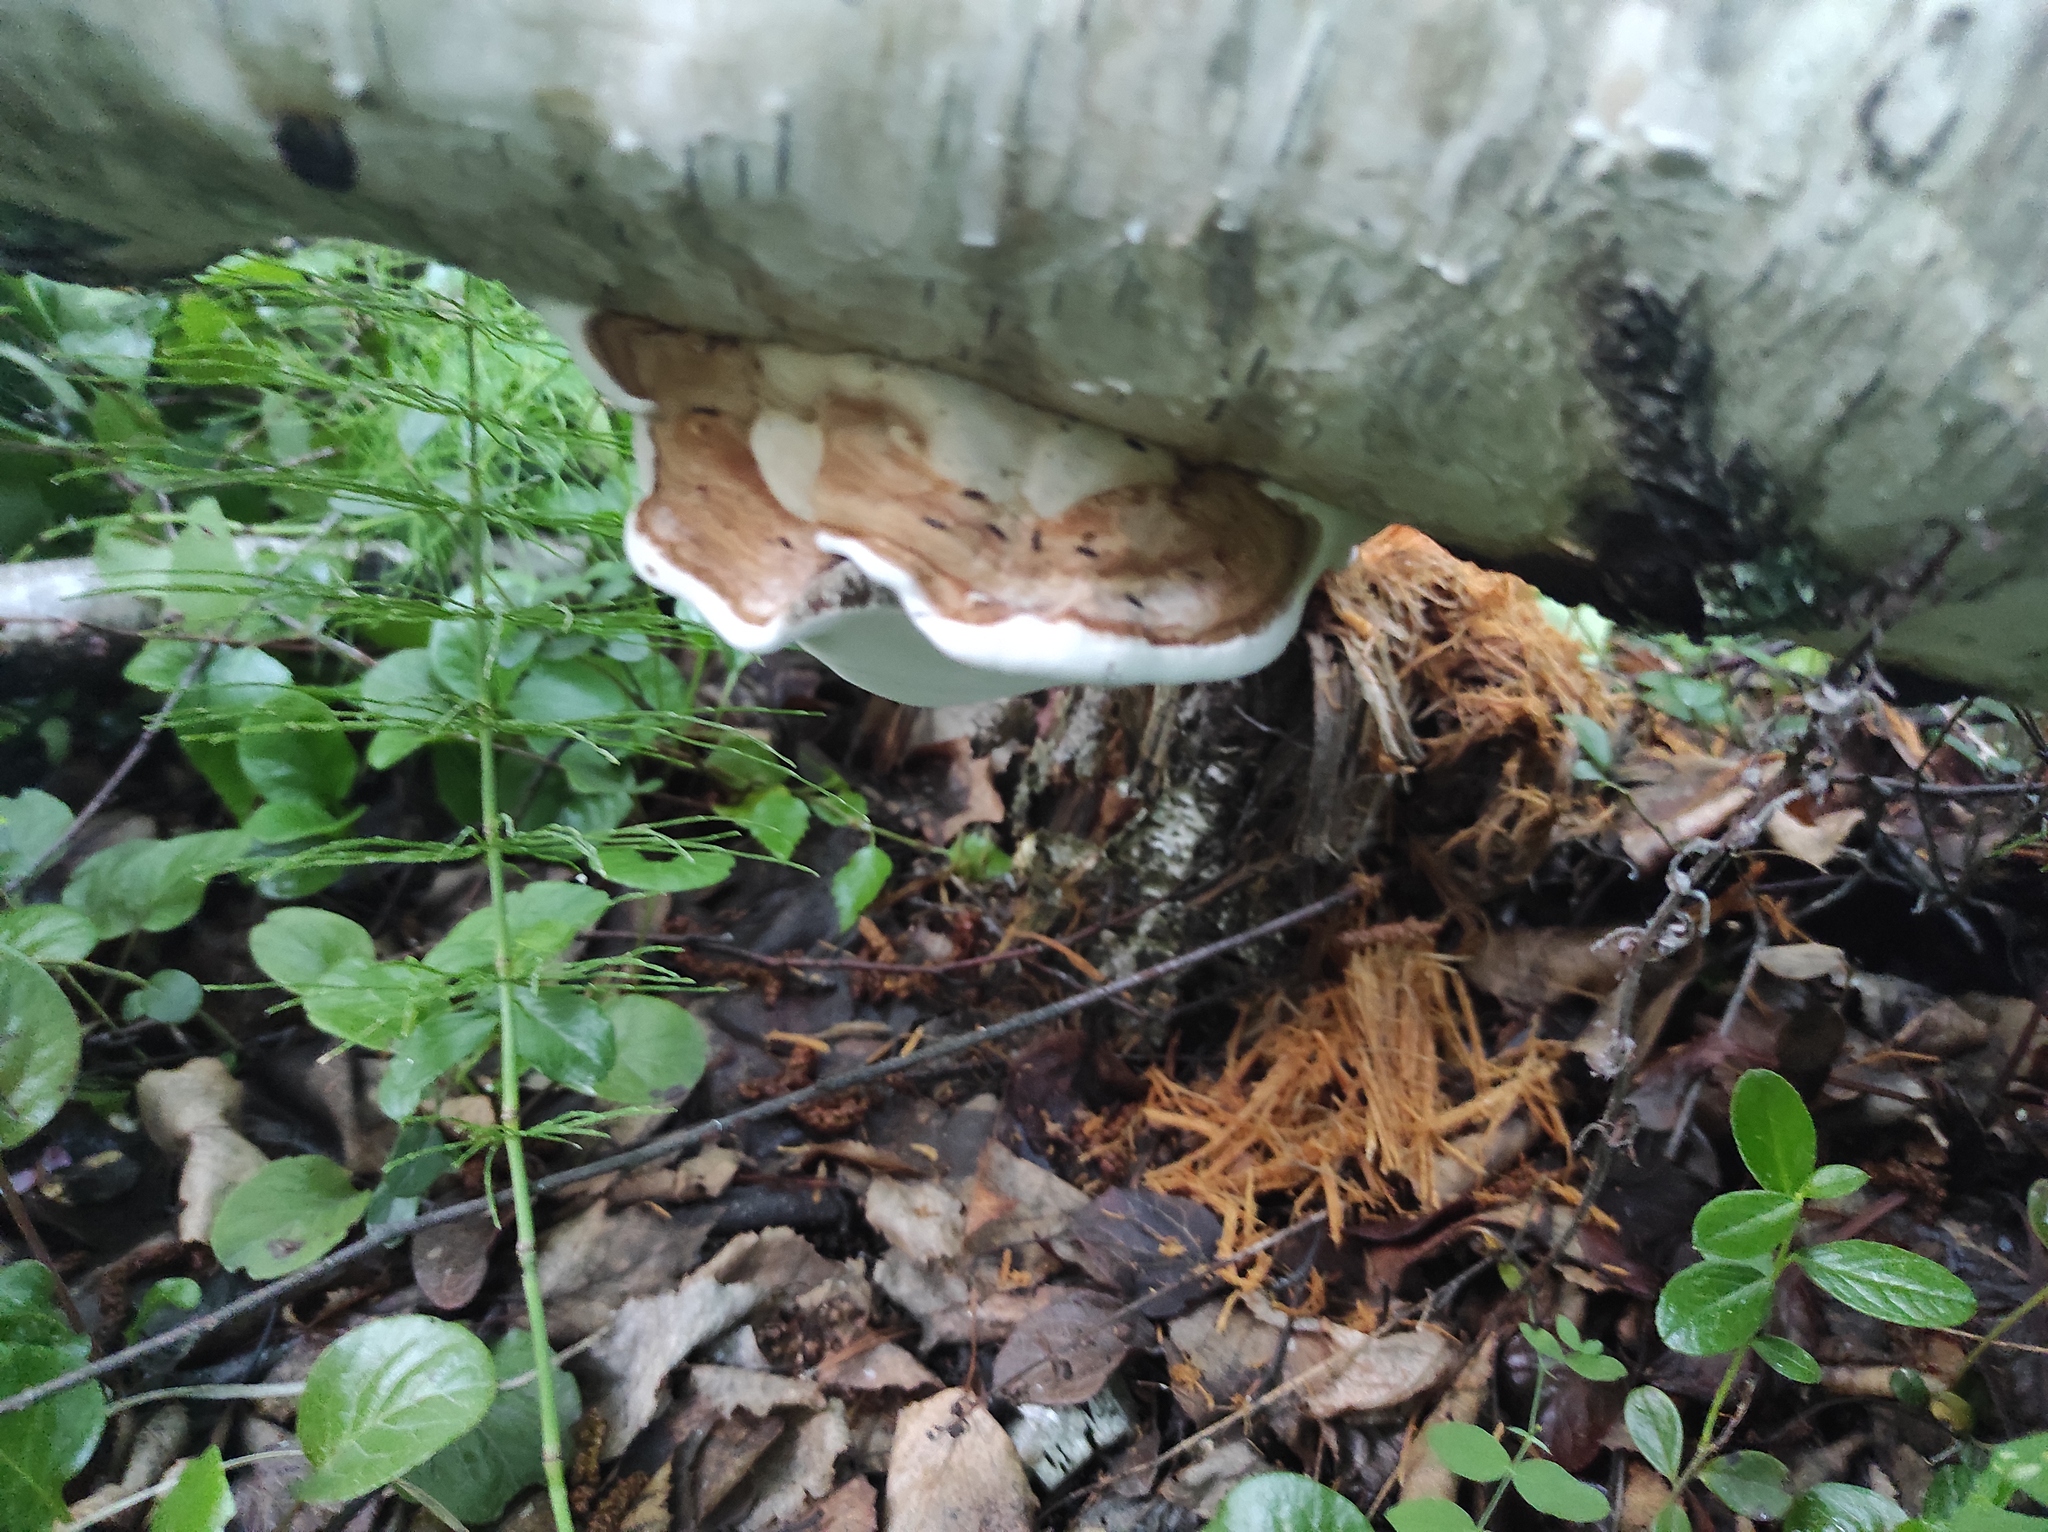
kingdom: Plantae
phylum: Tracheophyta
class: Polypodiopsida
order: Equisetales
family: Equisetaceae
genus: Equisetum
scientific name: Equisetum pratense
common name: Meadow horsetail
